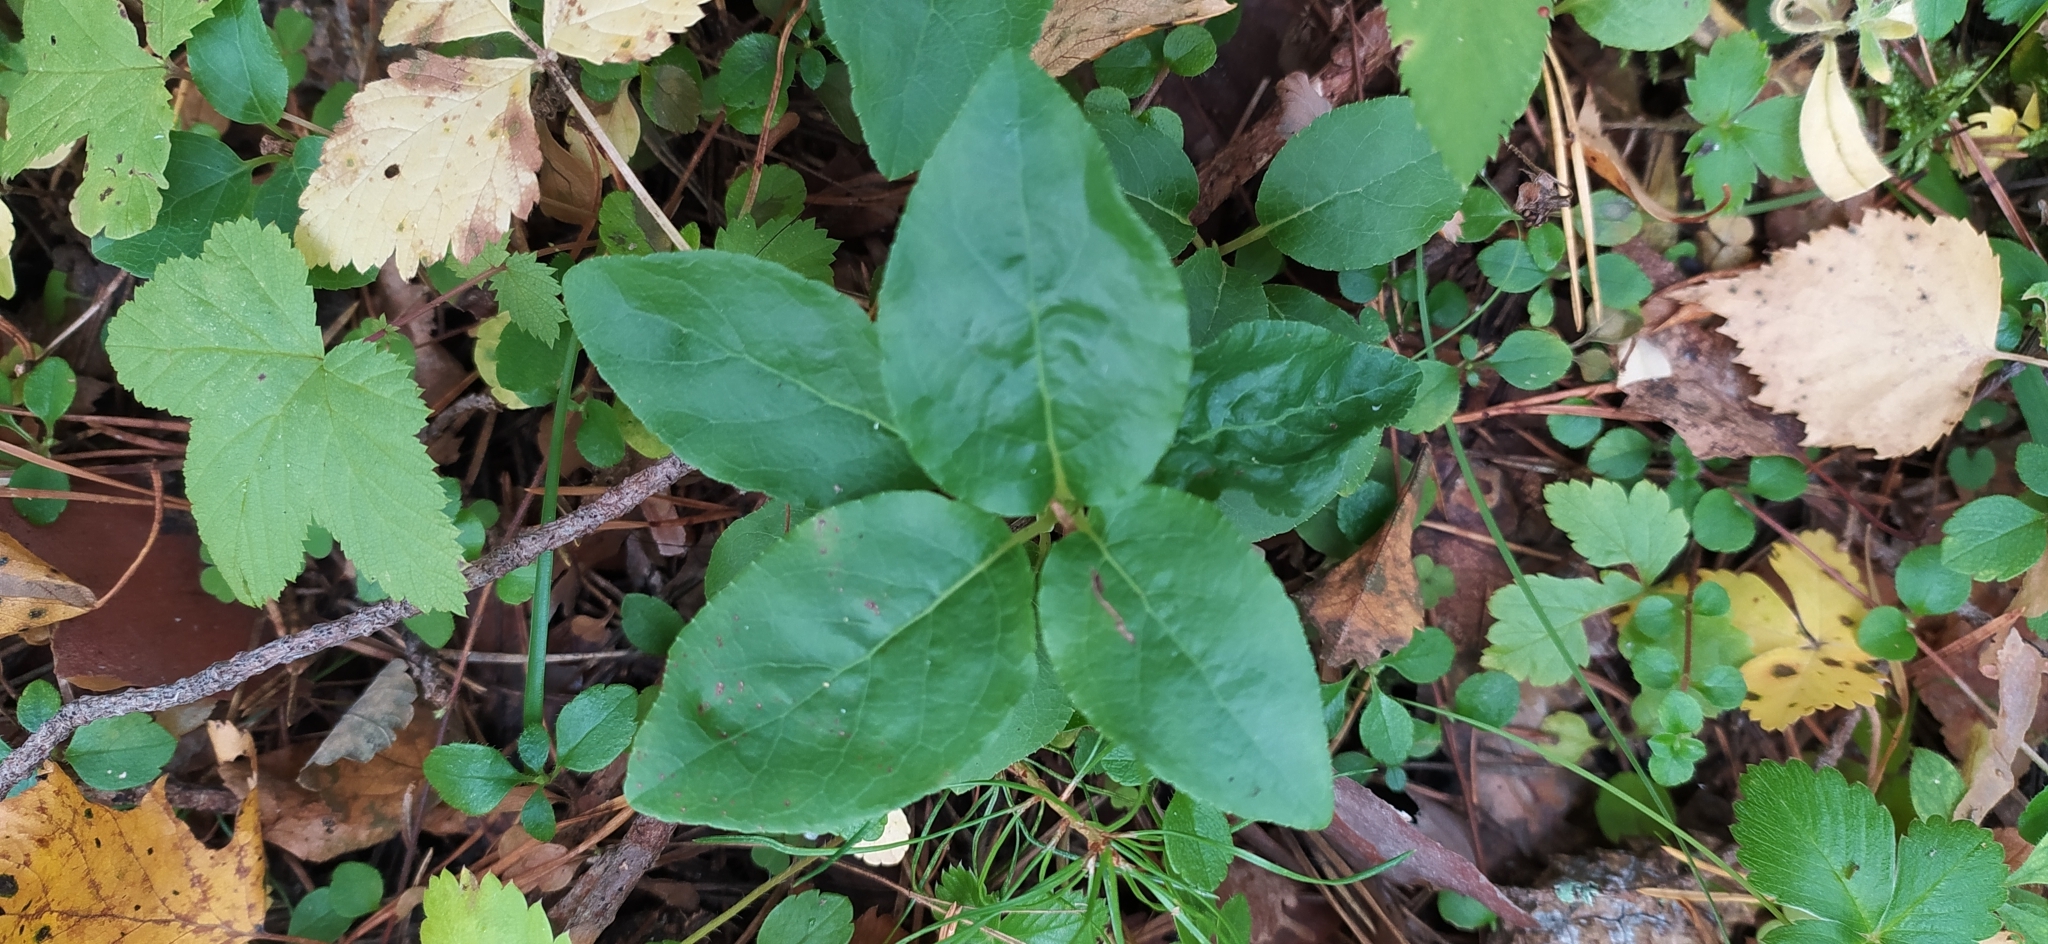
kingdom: Plantae
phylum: Tracheophyta
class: Magnoliopsida
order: Ericales
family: Ericaceae
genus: Orthilia
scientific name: Orthilia secunda
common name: One-sided orthilia
